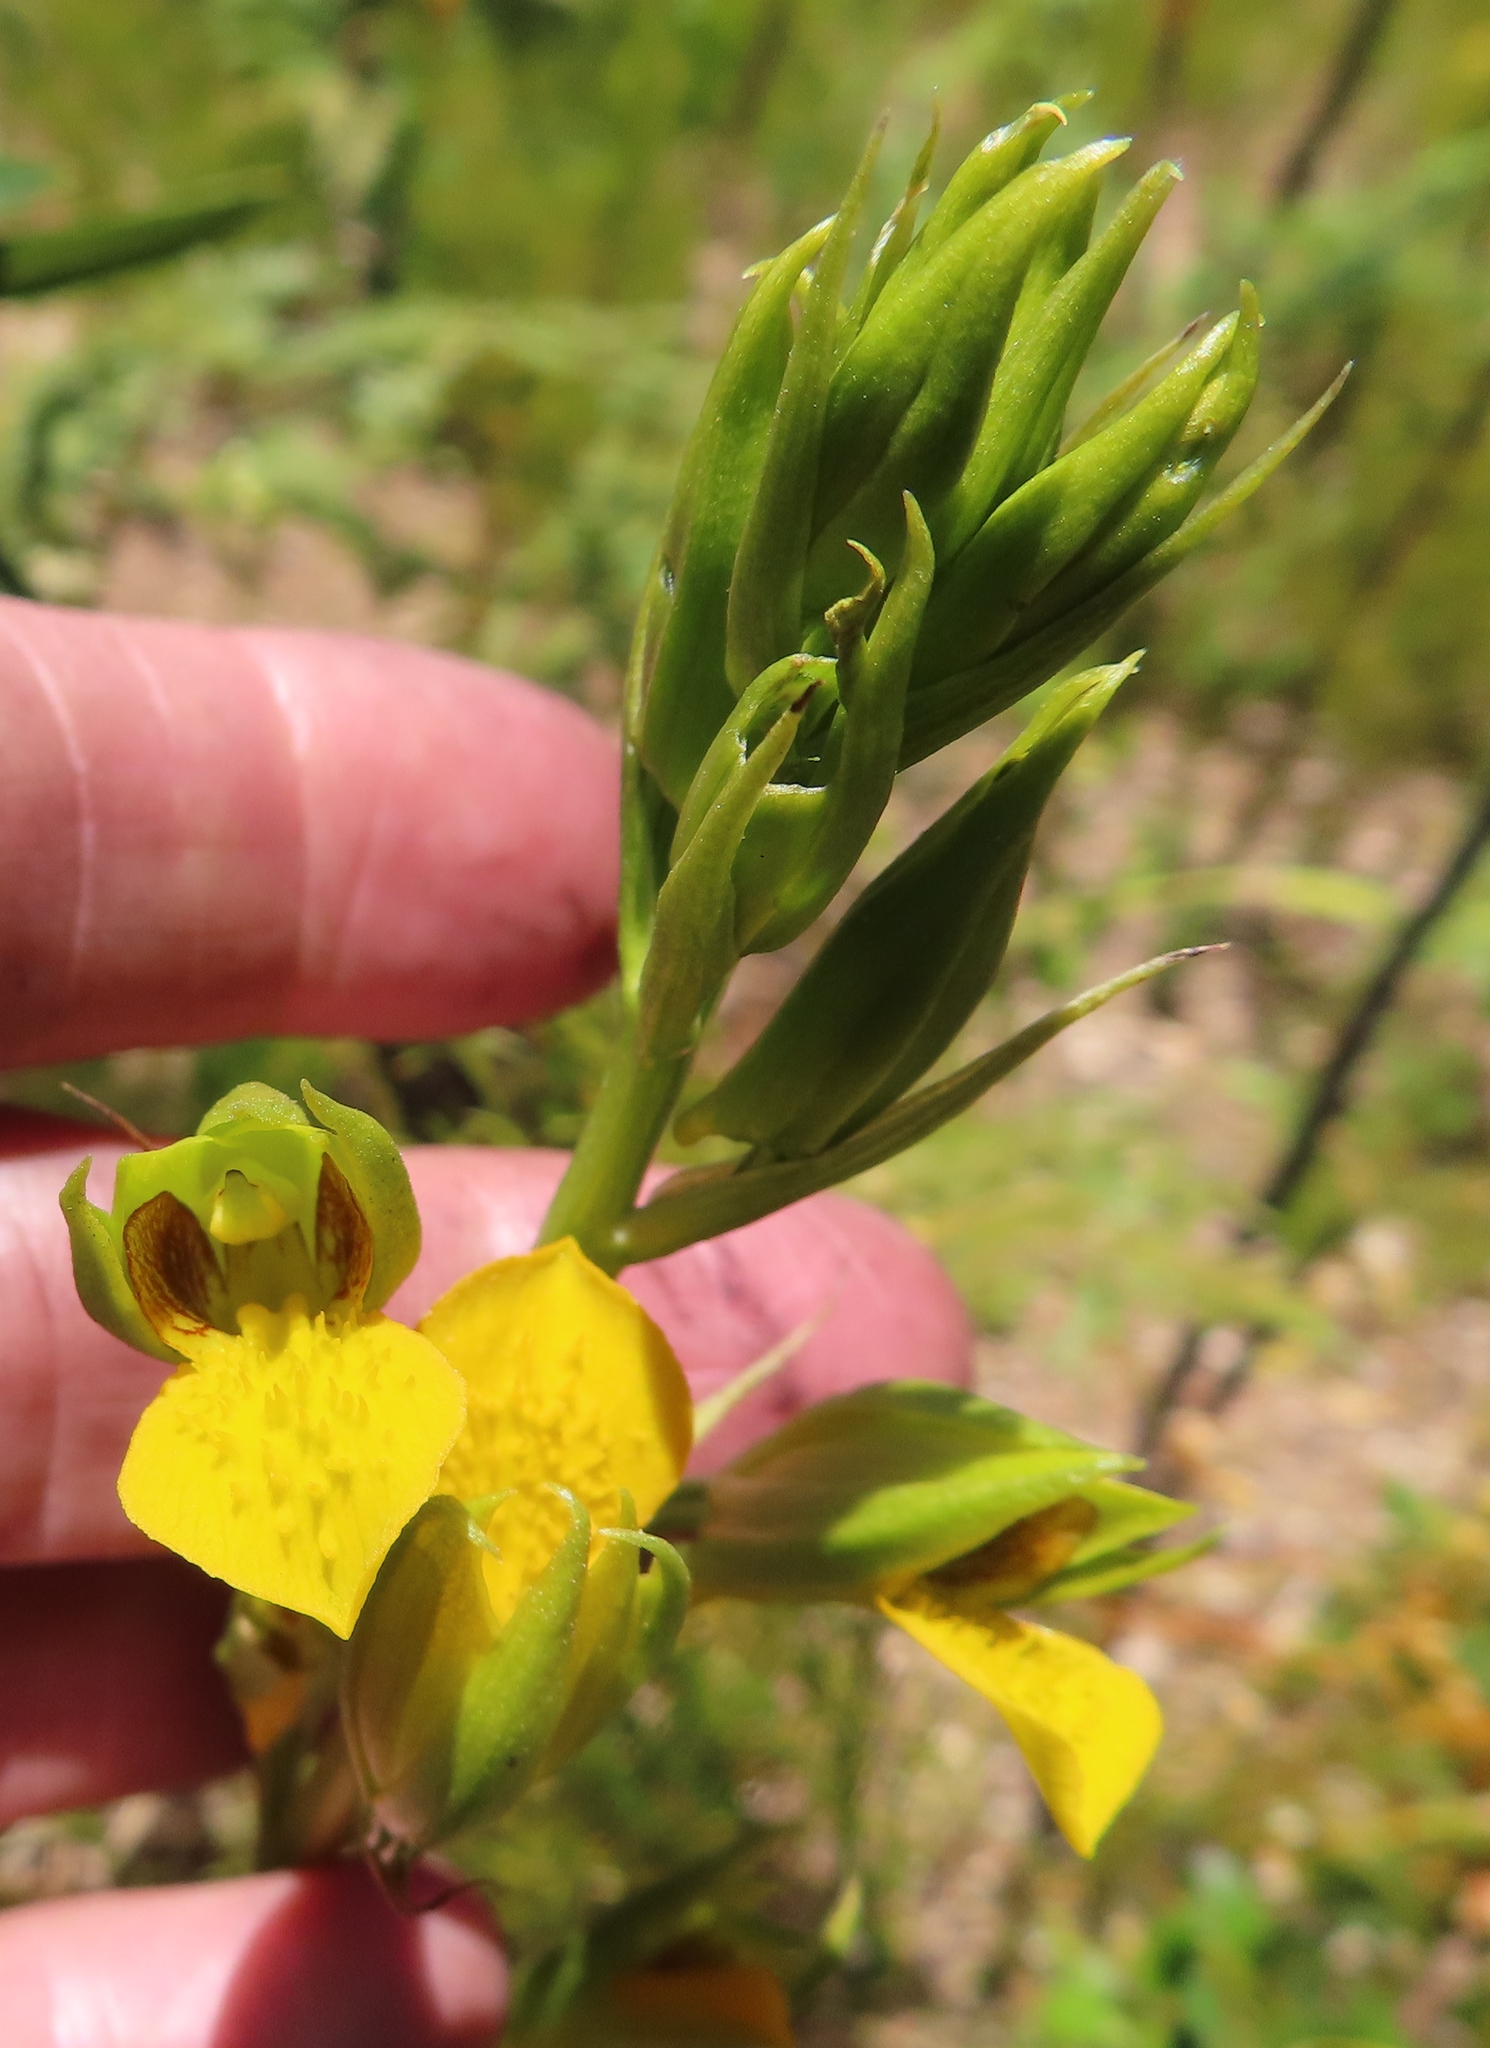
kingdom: Plantae
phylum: Tracheophyta
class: Liliopsida
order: Asparagales
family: Orchidaceae
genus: Eulophia
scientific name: Eulophia litoralis
